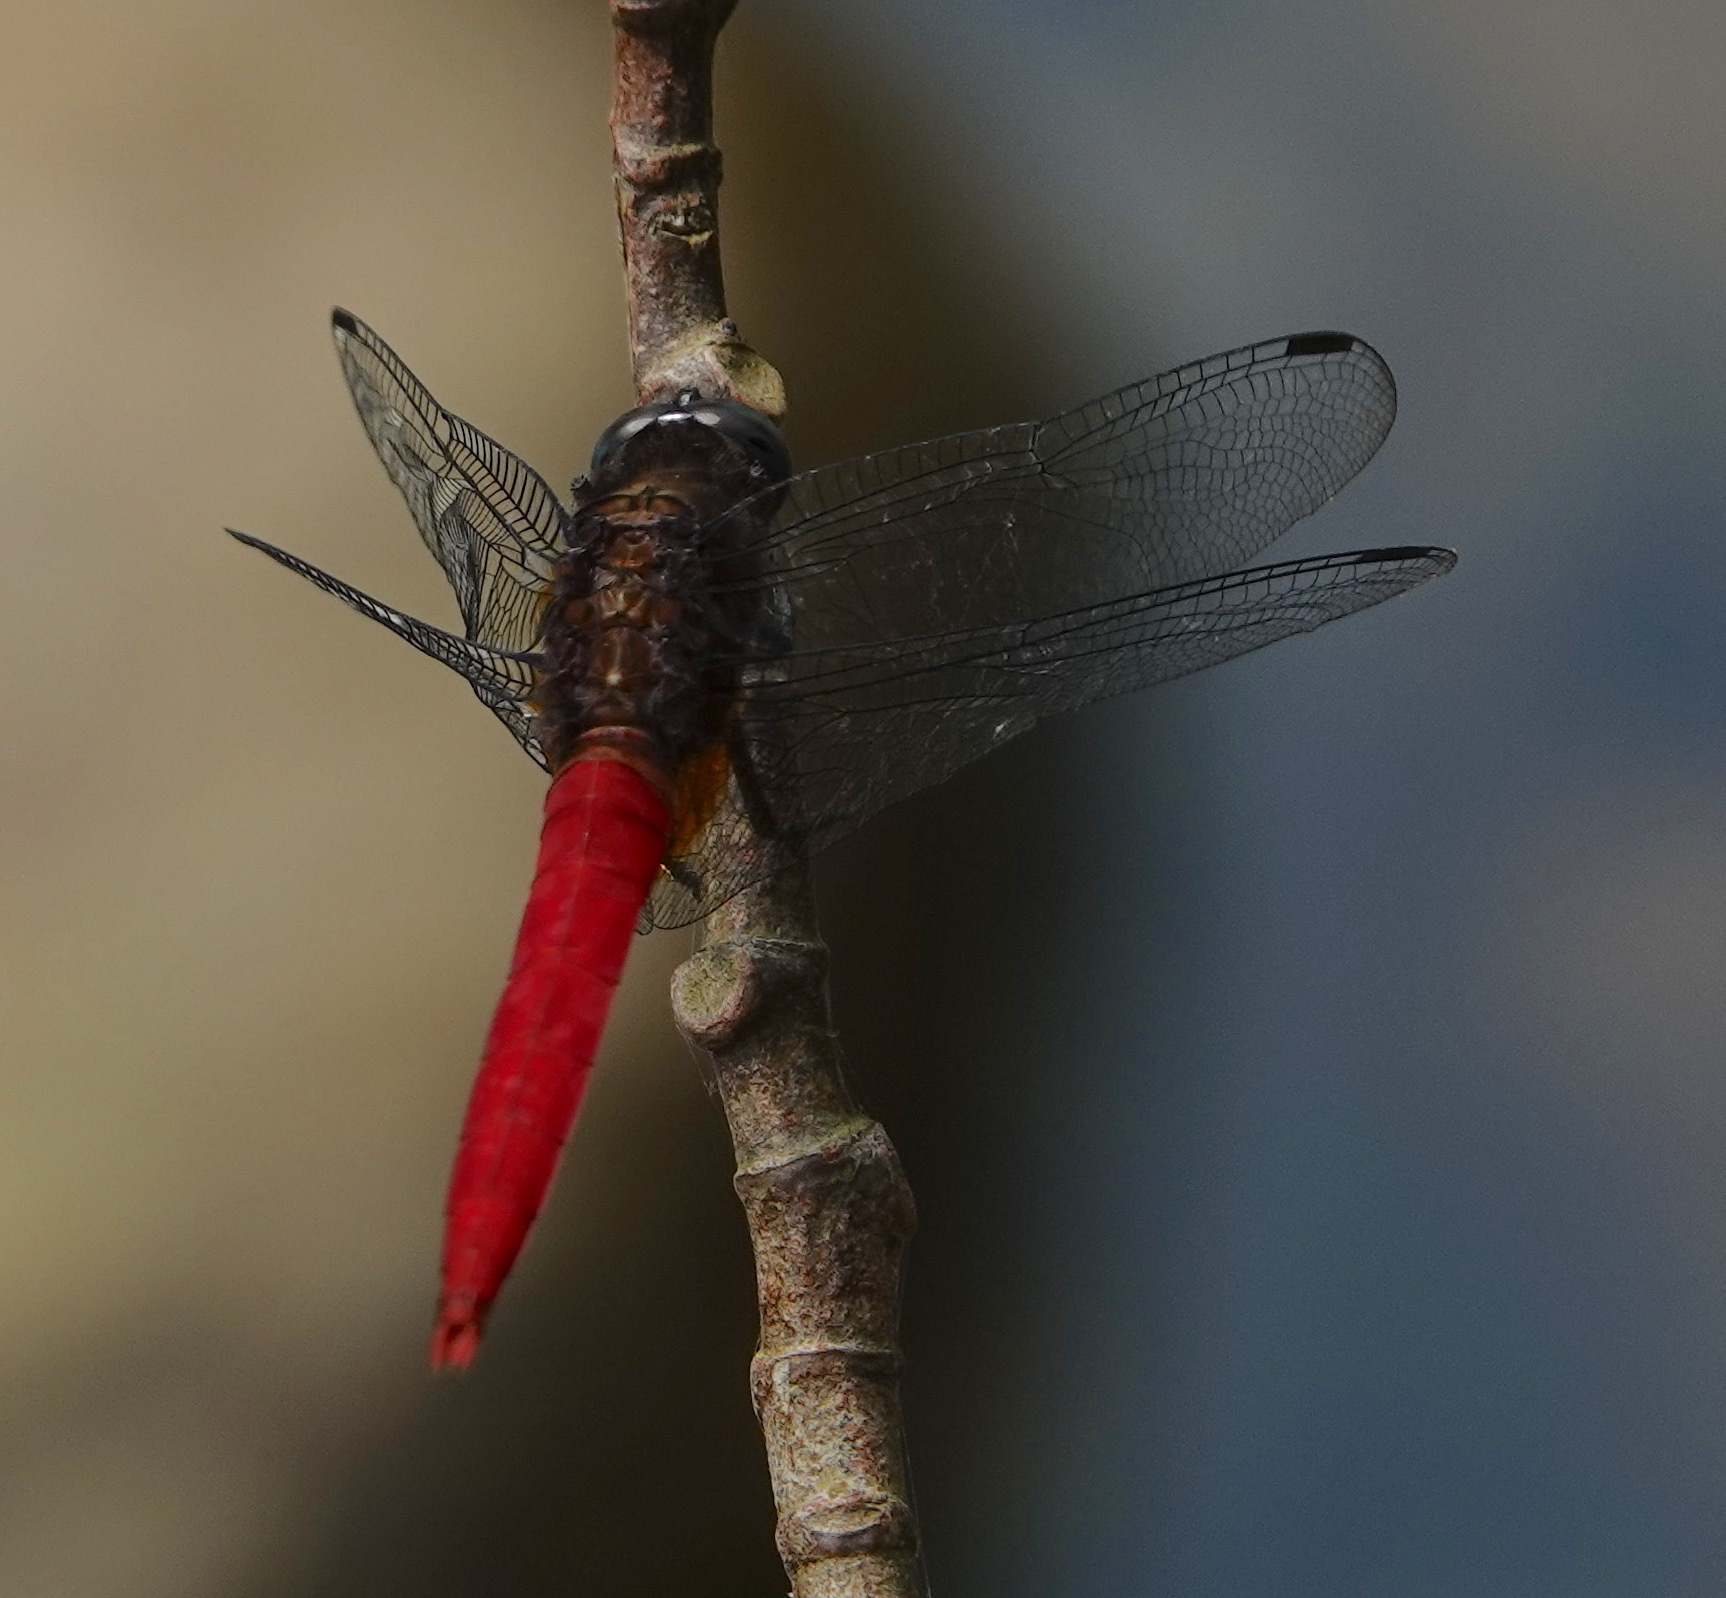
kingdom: Animalia
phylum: Arthropoda
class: Insecta
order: Odonata
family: Libellulidae
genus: Orthetrum
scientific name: Orthetrum chrysis
